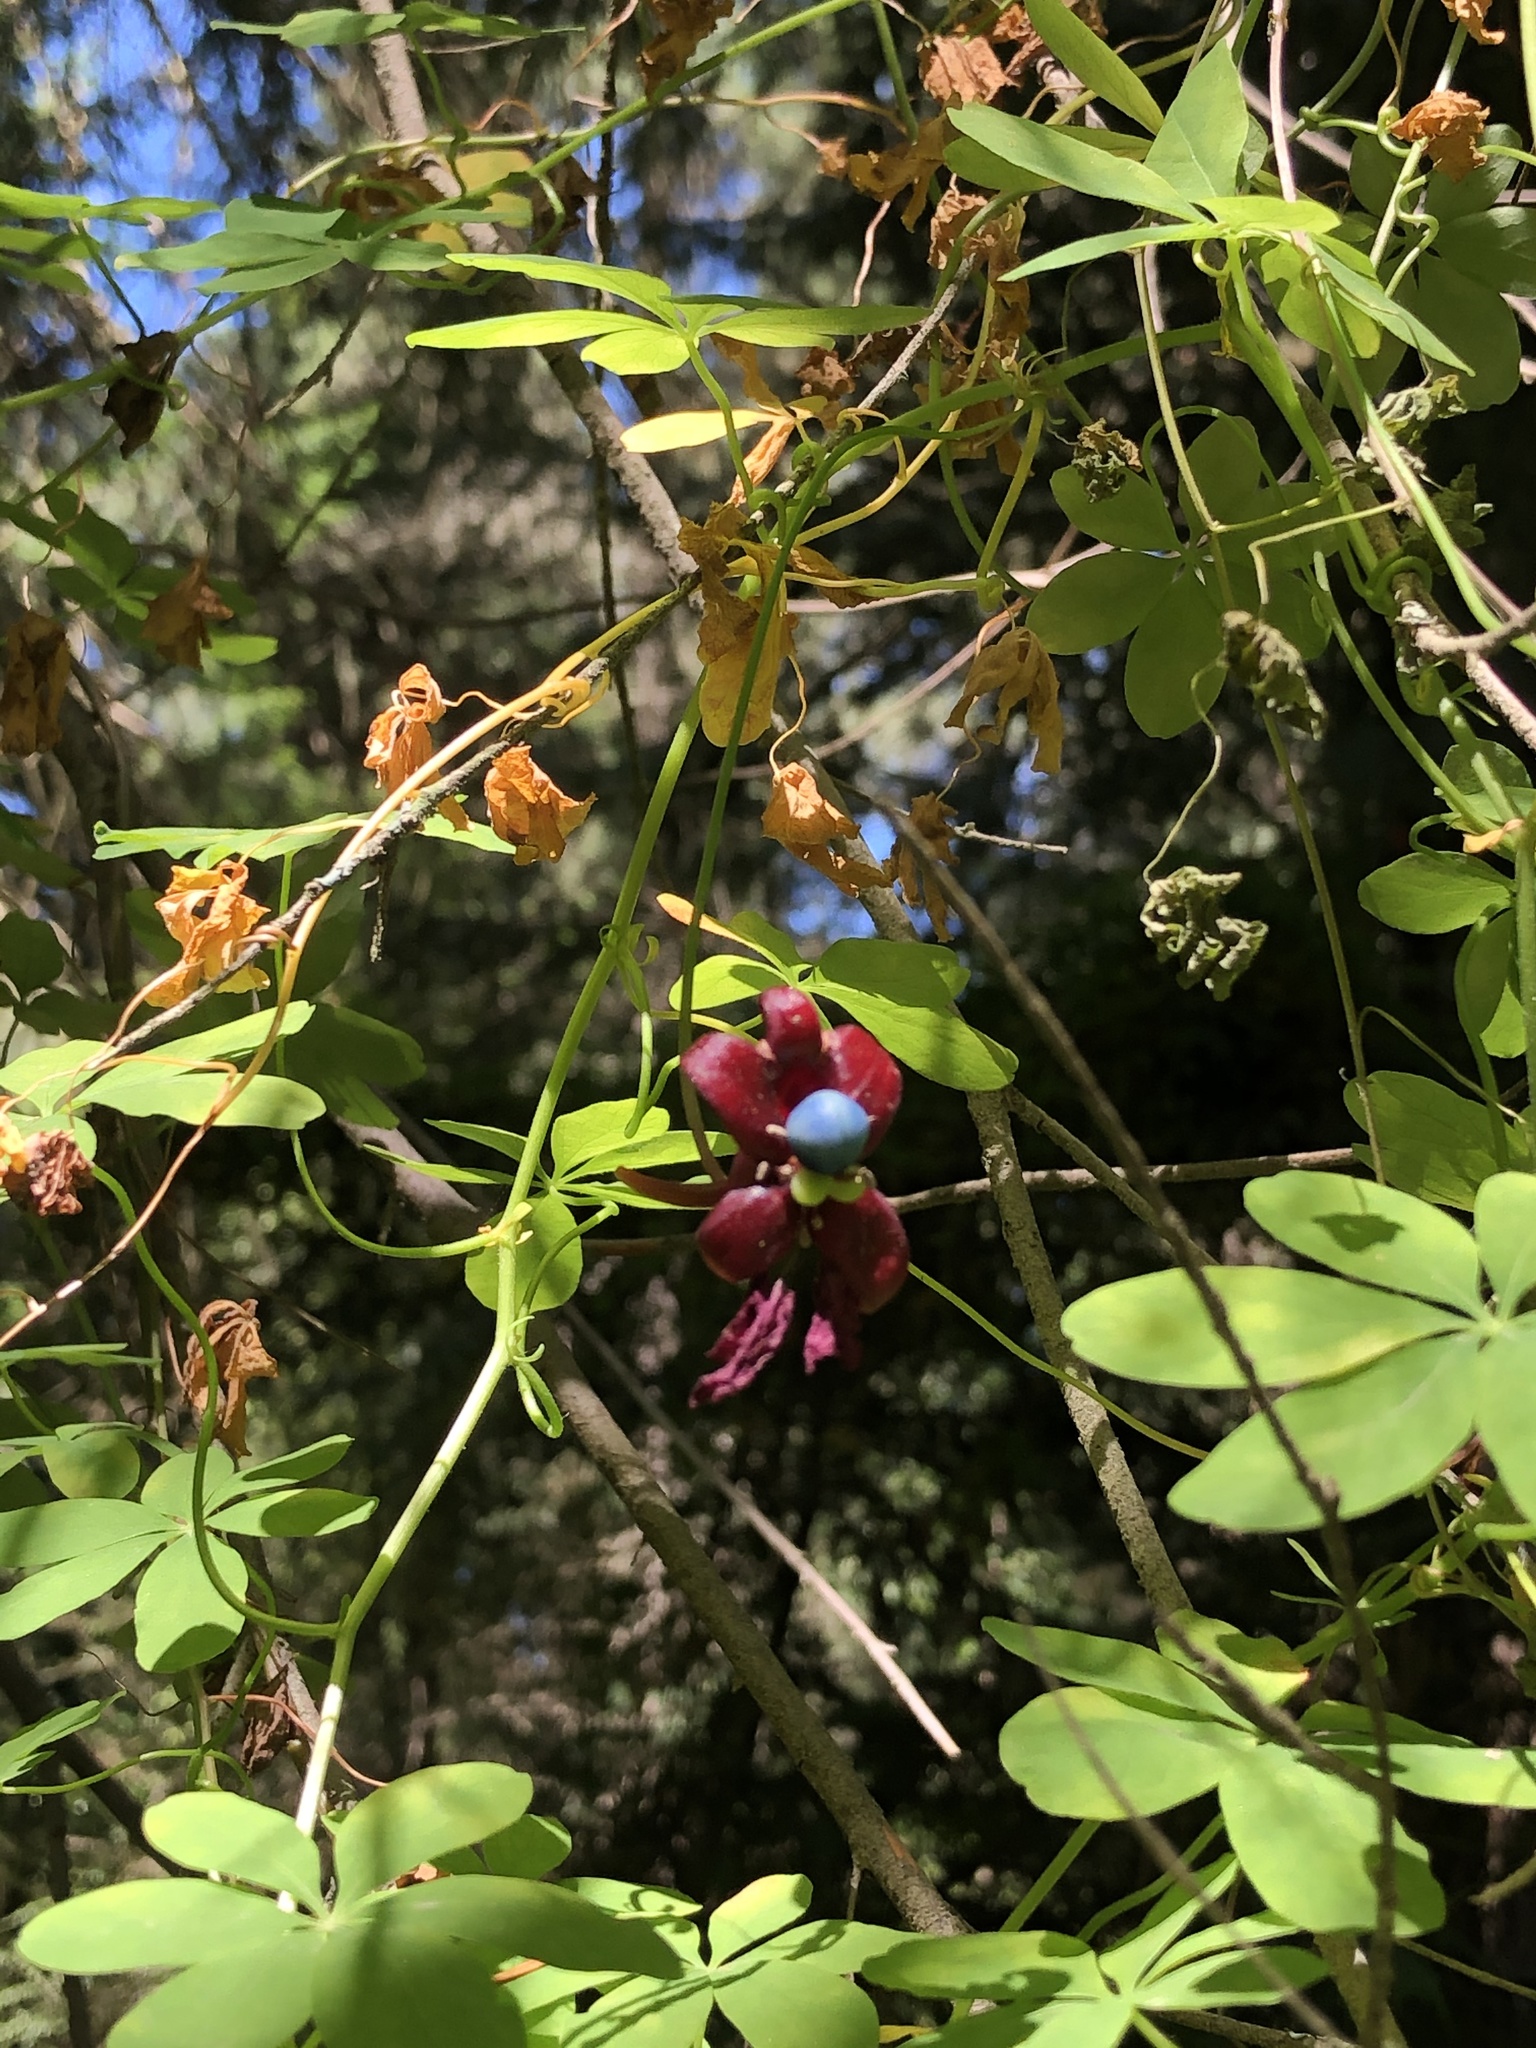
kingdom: Plantae
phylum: Tracheophyta
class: Magnoliopsida
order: Brassicales
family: Tropaeolaceae
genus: Tropaeolum
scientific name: Tropaeolum speciosum
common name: Flame nasturtium
